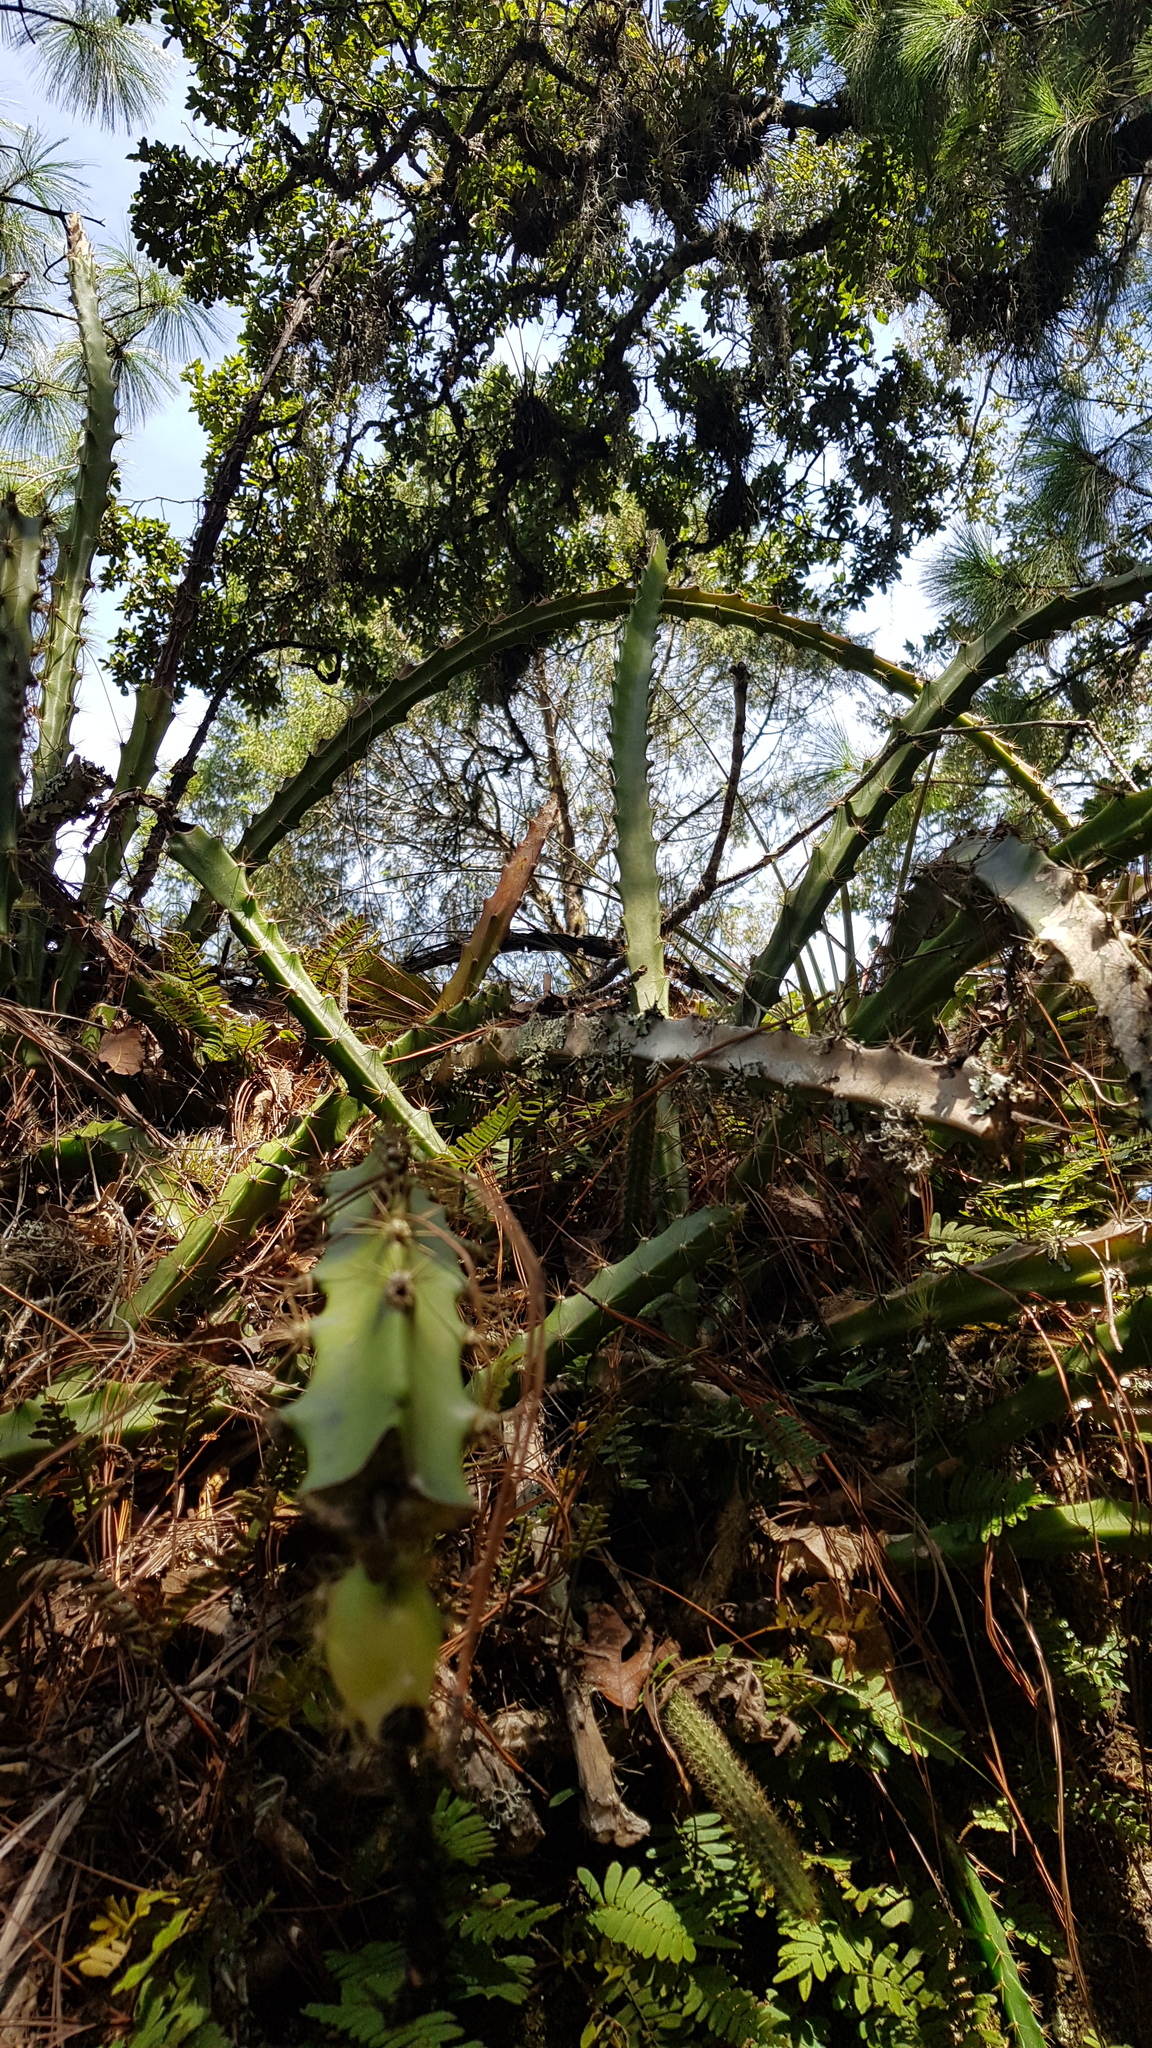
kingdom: Plantae
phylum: Tracheophyta
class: Magnoliopsida
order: Caryophyllales
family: Cactaceae
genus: Disocactus
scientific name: Disocactus speciosus
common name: Sun cereus
